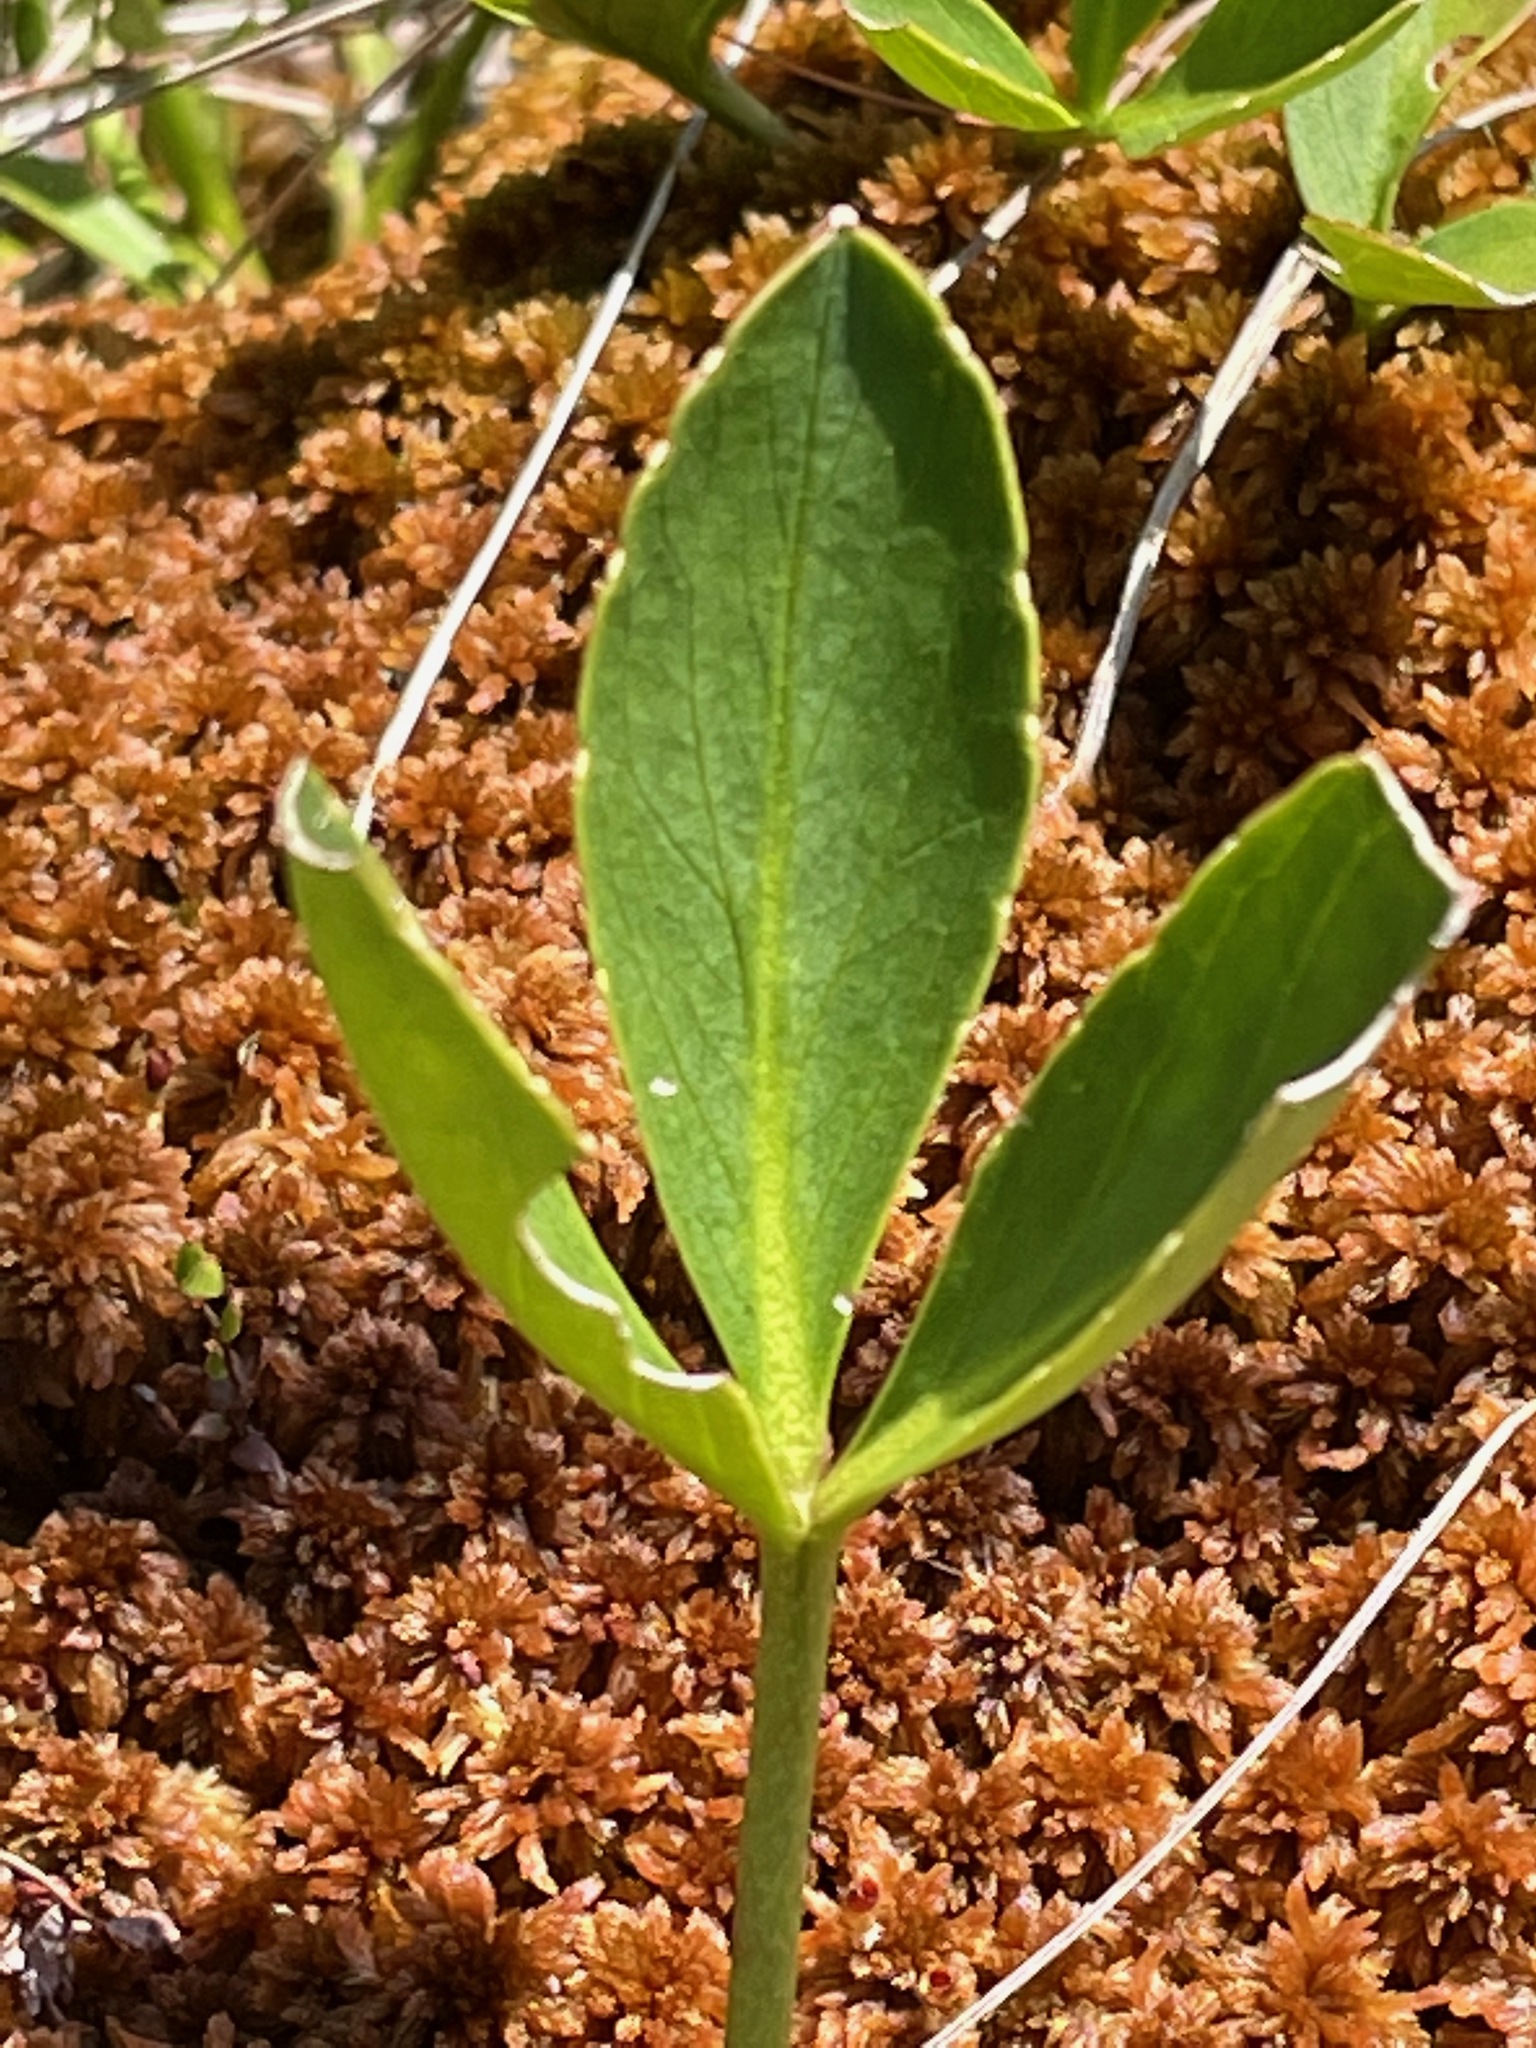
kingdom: Plantae
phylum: Tracheophyta
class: Magnoliopsida
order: Asterales
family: Menyanthaceae
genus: Menyanthes
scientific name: Menyanthes trifoliata
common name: Bogbean
